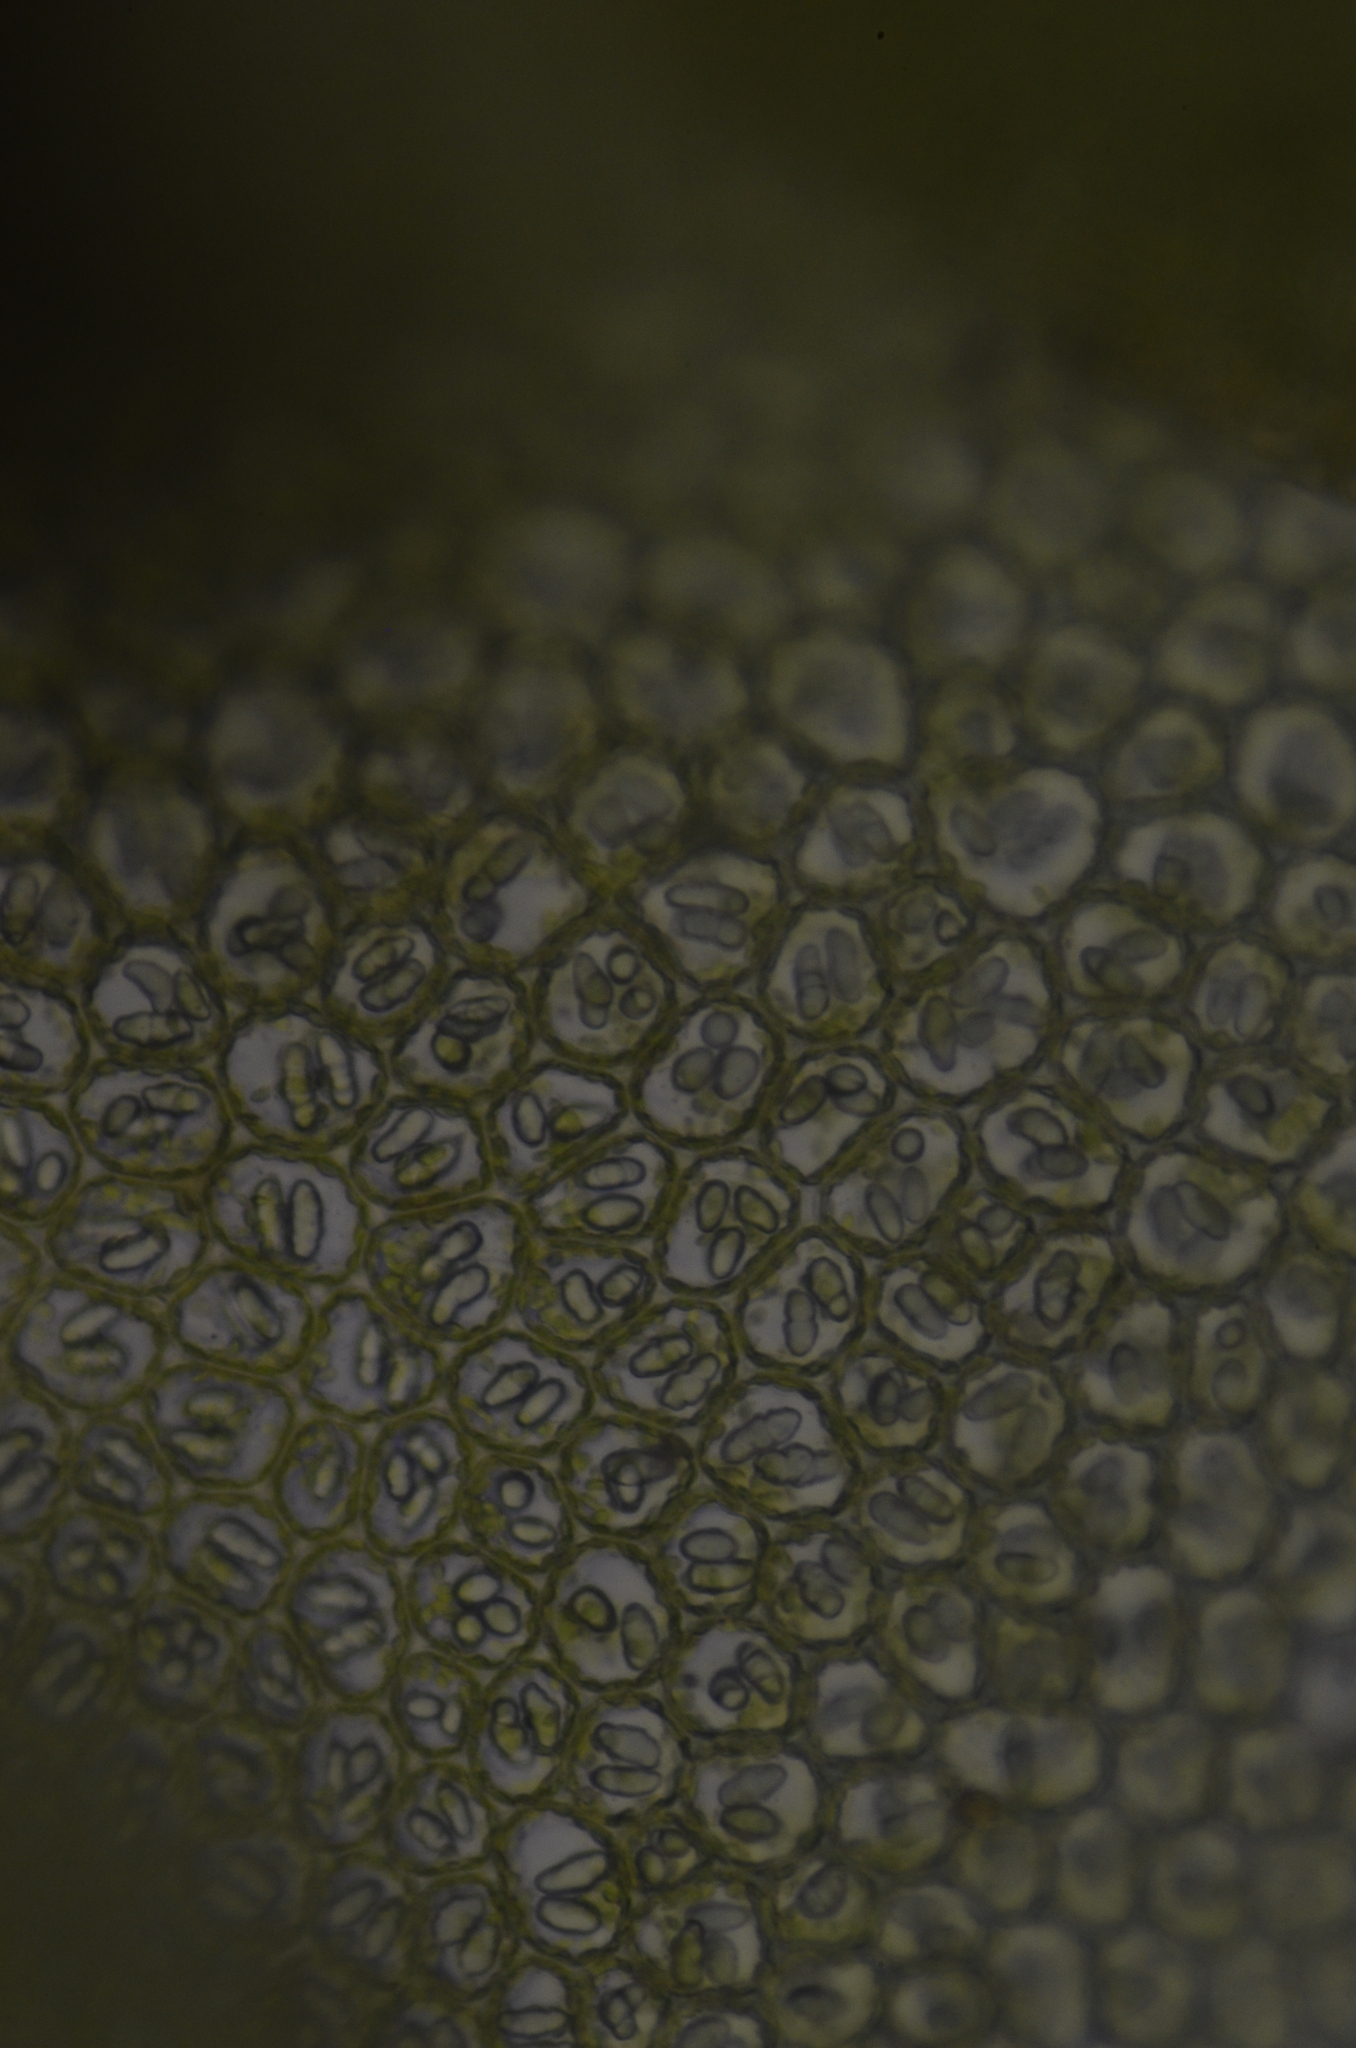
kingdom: Plantae
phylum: Marchantiophyta
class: Jungermanniopsida
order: Jungermanniales
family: Gymnomitriaceae
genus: Nardia
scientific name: Nardia scalaris
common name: Ladder flapwort
